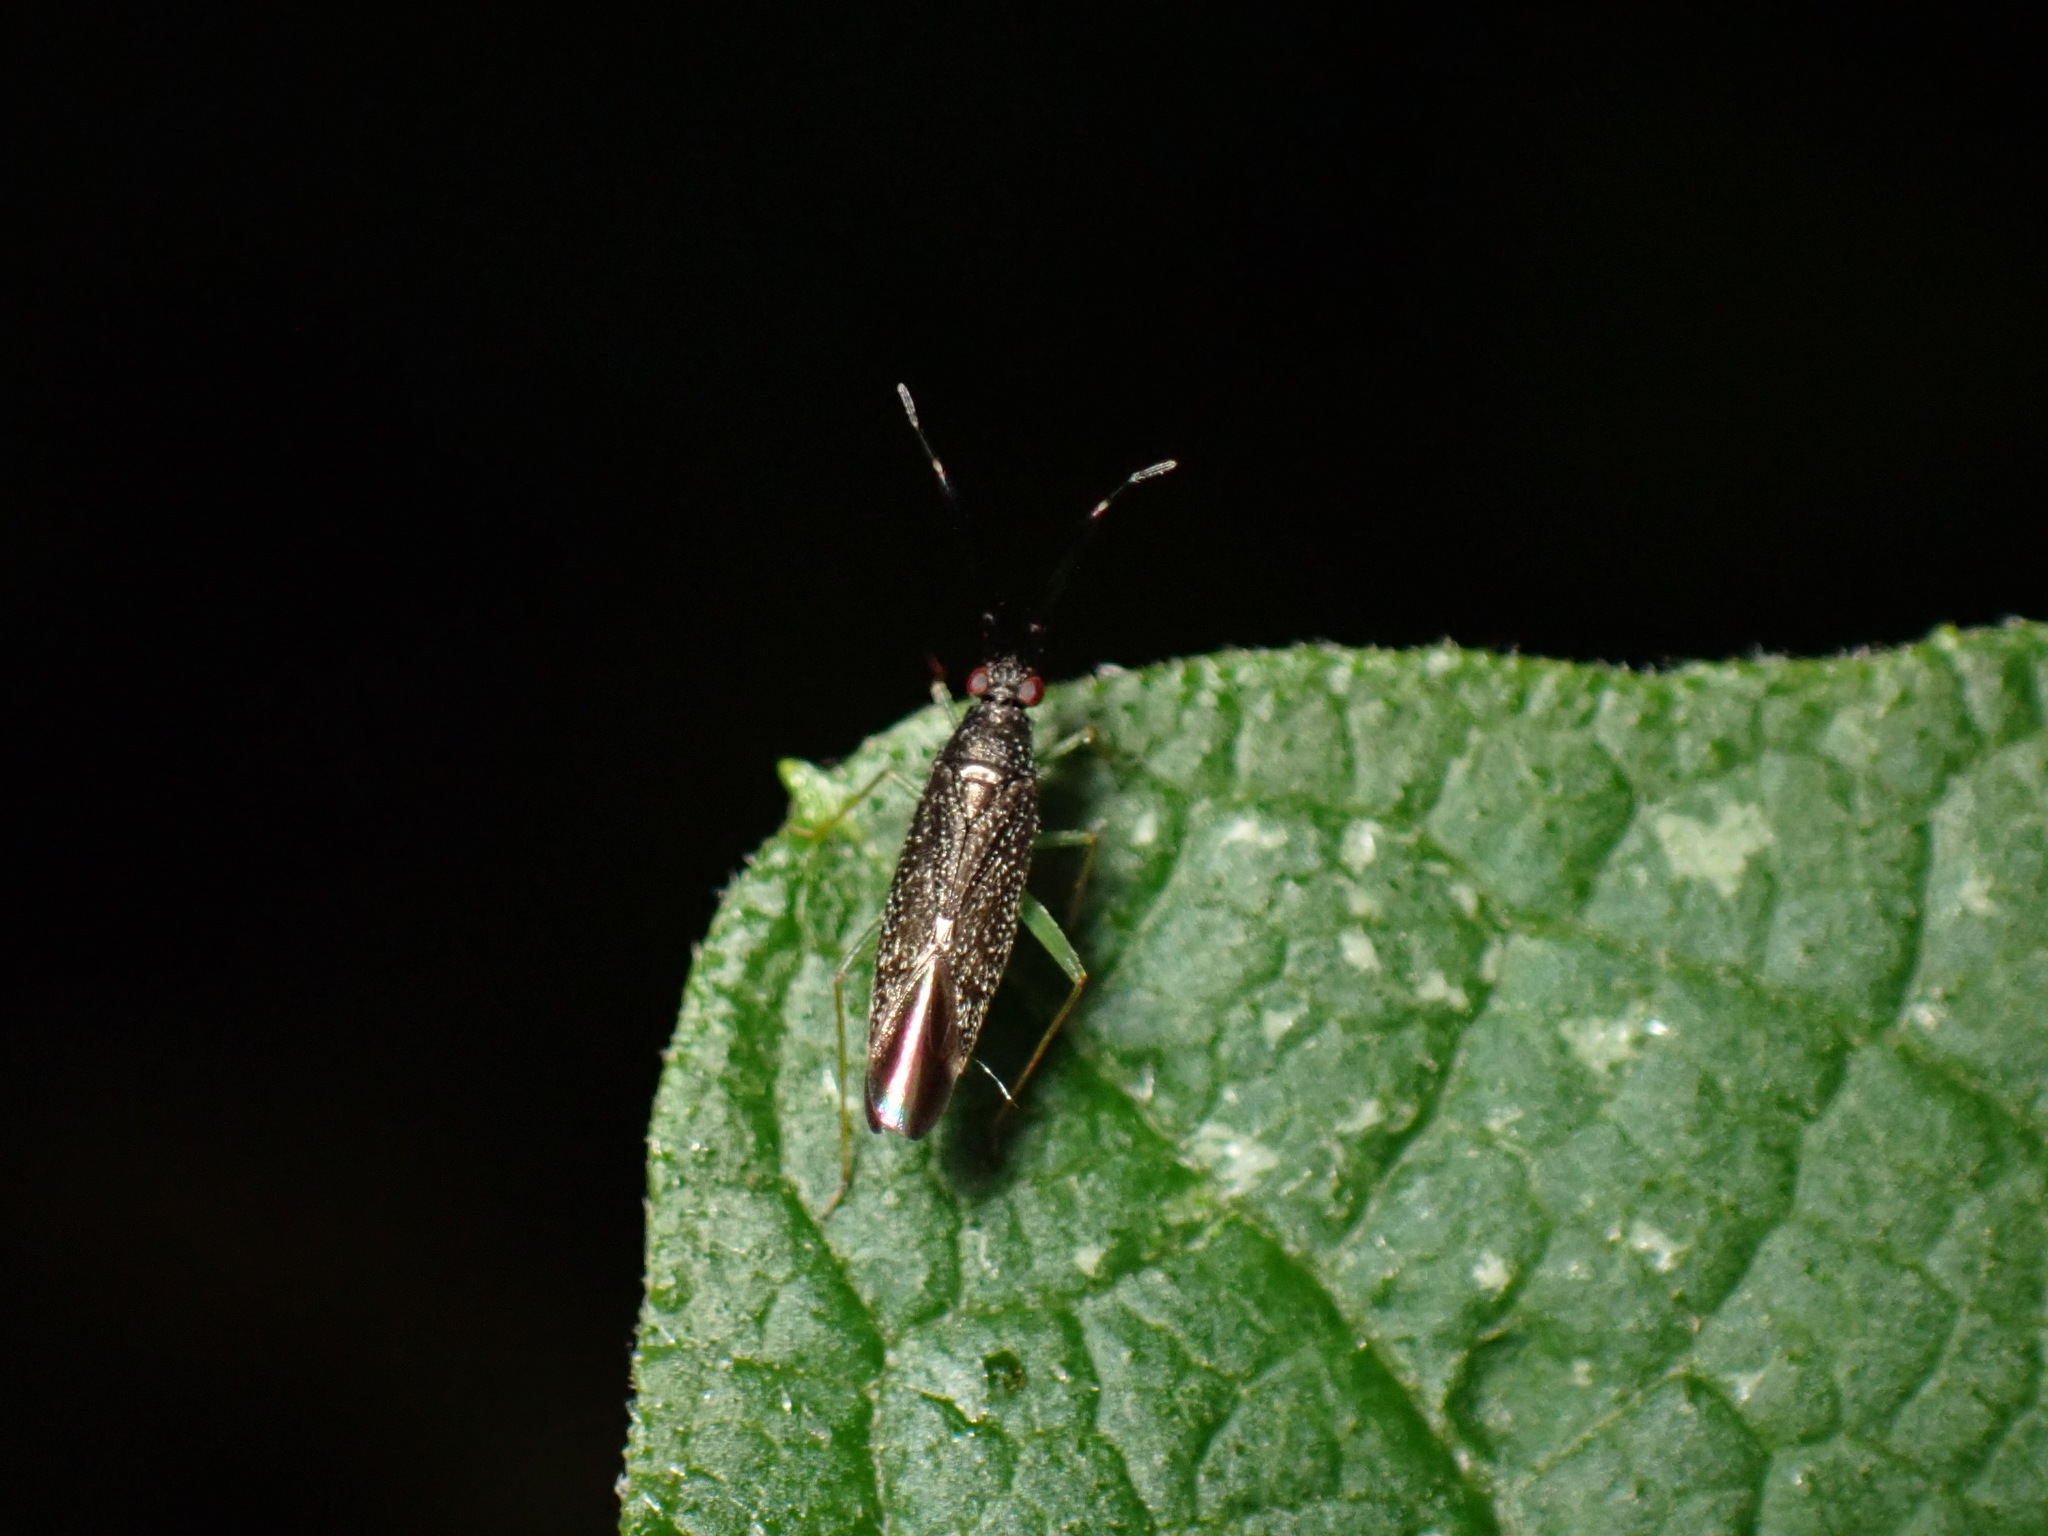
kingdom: Animalia
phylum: Arthropoda
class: Insecta
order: Hemiptera
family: Miridae
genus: Heterotoma
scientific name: Heterotoma planicornis
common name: Plant bug
